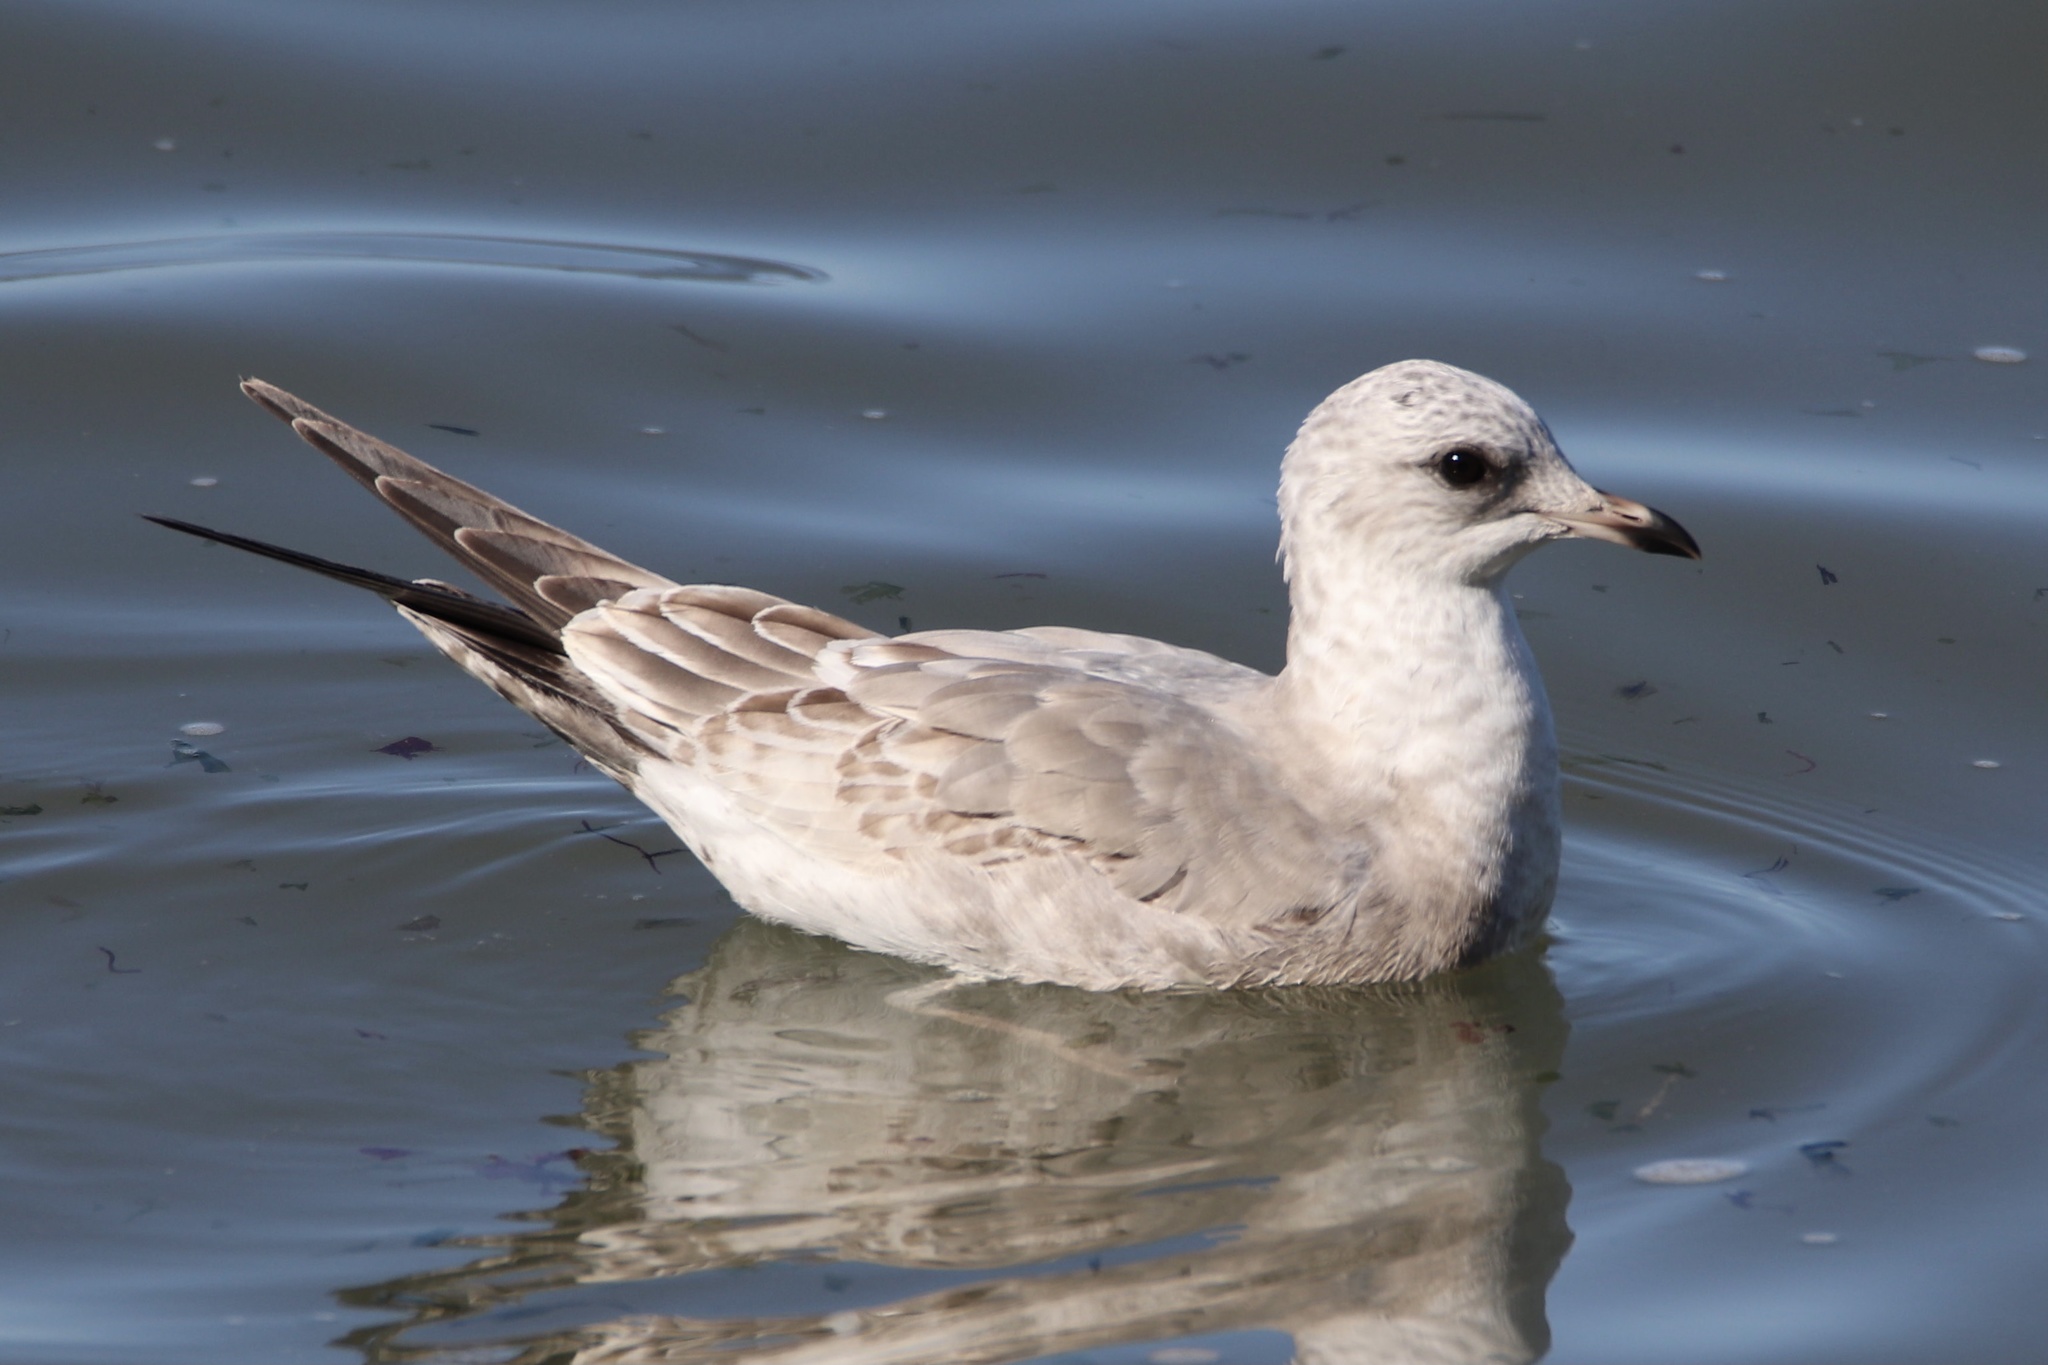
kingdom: Animalia
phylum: Chordata
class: Aves
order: Charadriiformes
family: Laridae
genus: Larus
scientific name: Larus brachyrhynchus
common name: Short-billed gull
